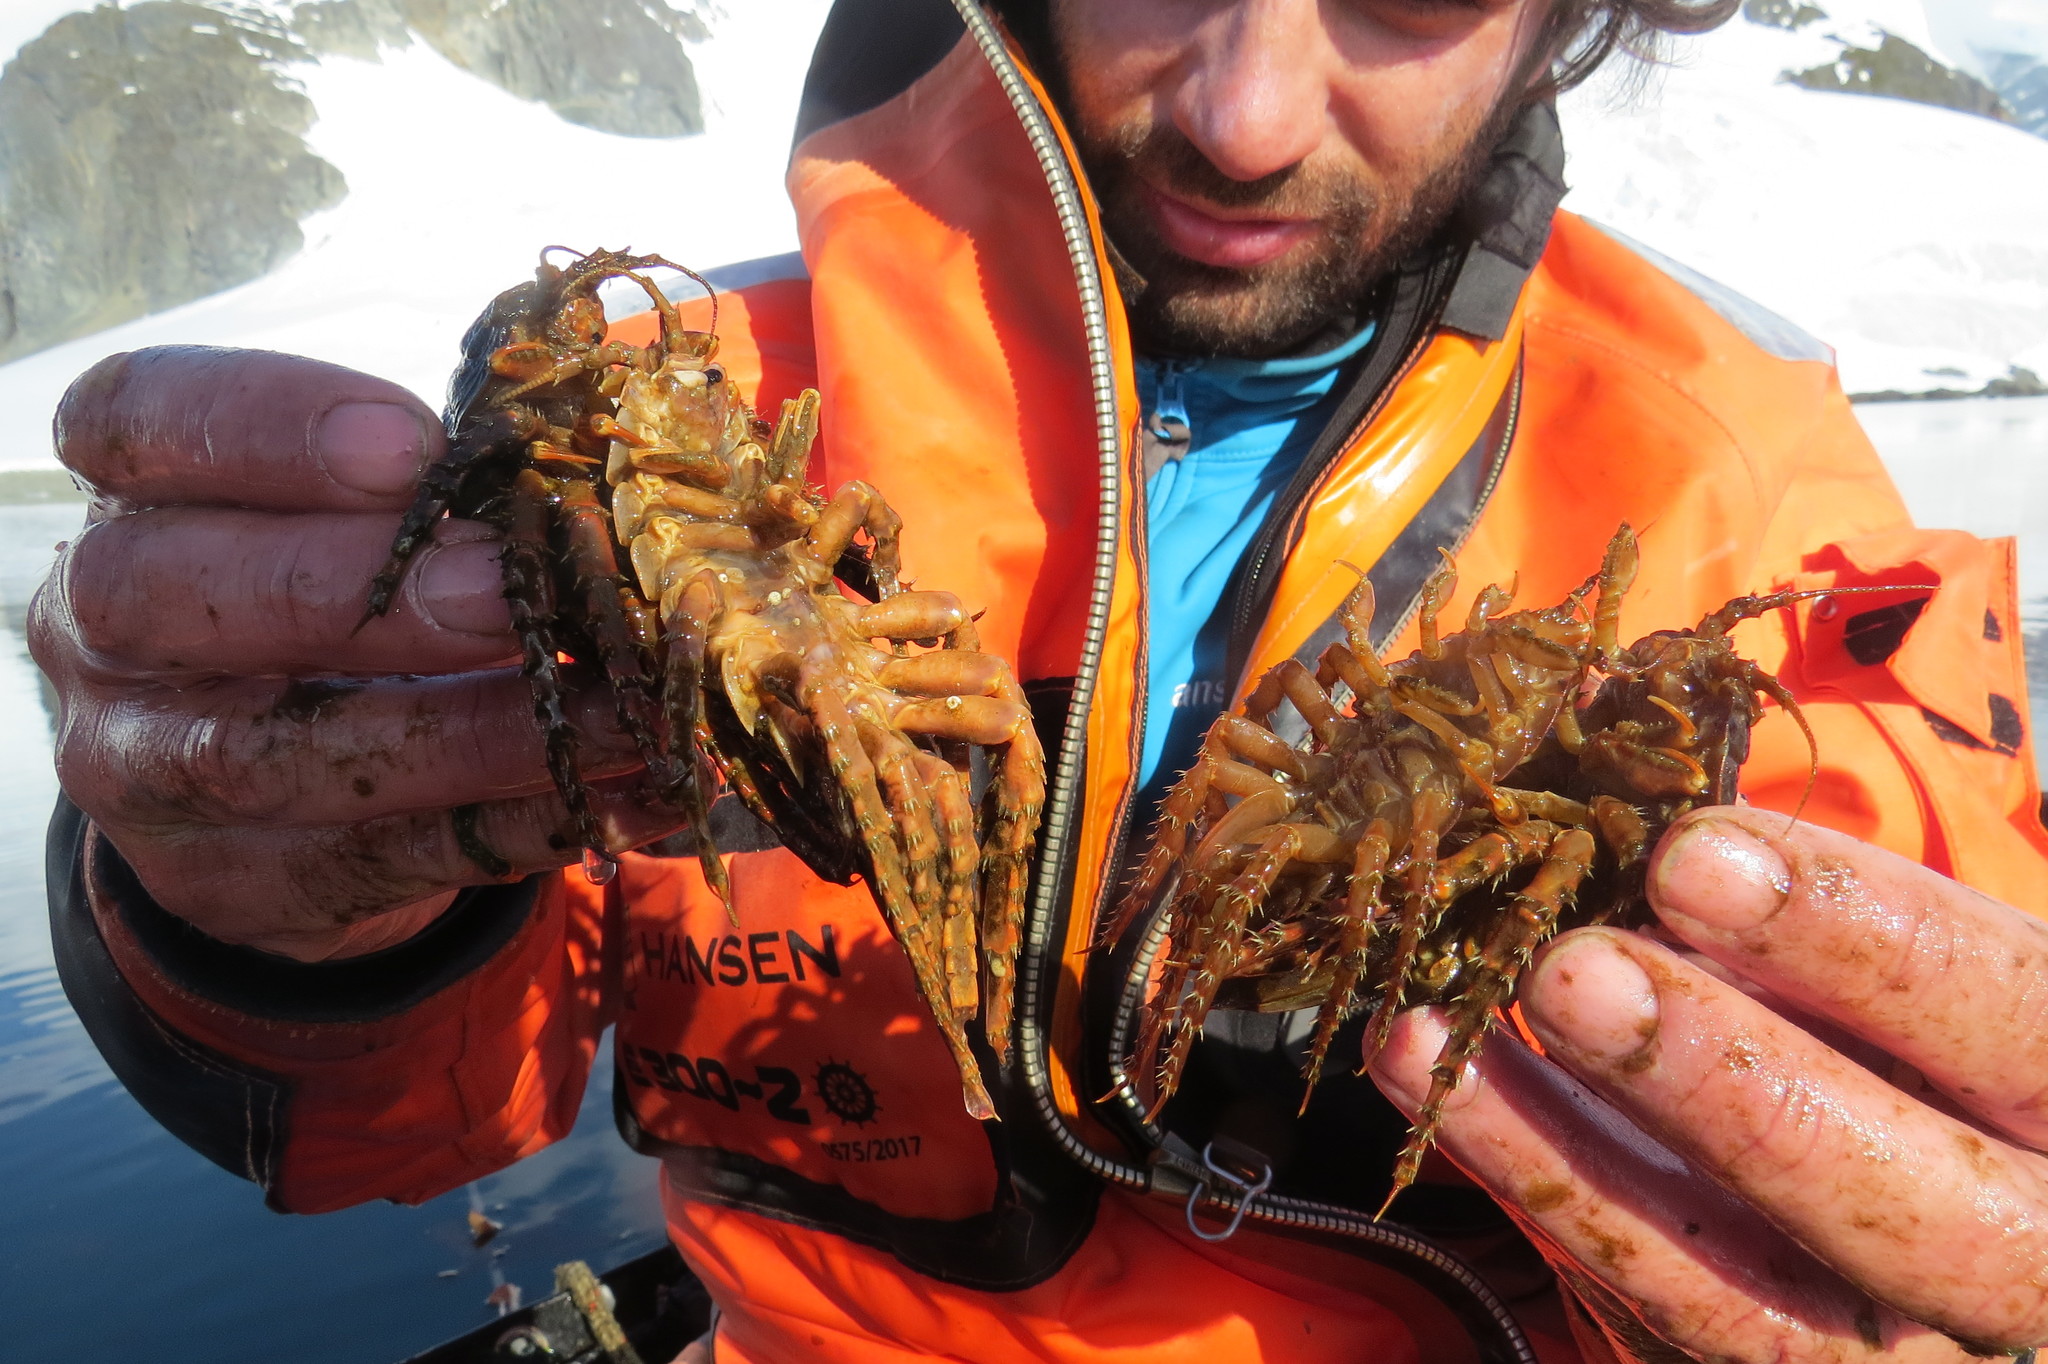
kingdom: Animalia
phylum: Arthropoda
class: Malacostraca
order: Isopoda
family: Chaetiliidae
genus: Glyptonotus
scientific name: Glyptonotus antarcticus
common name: Giant antarctic isopod
